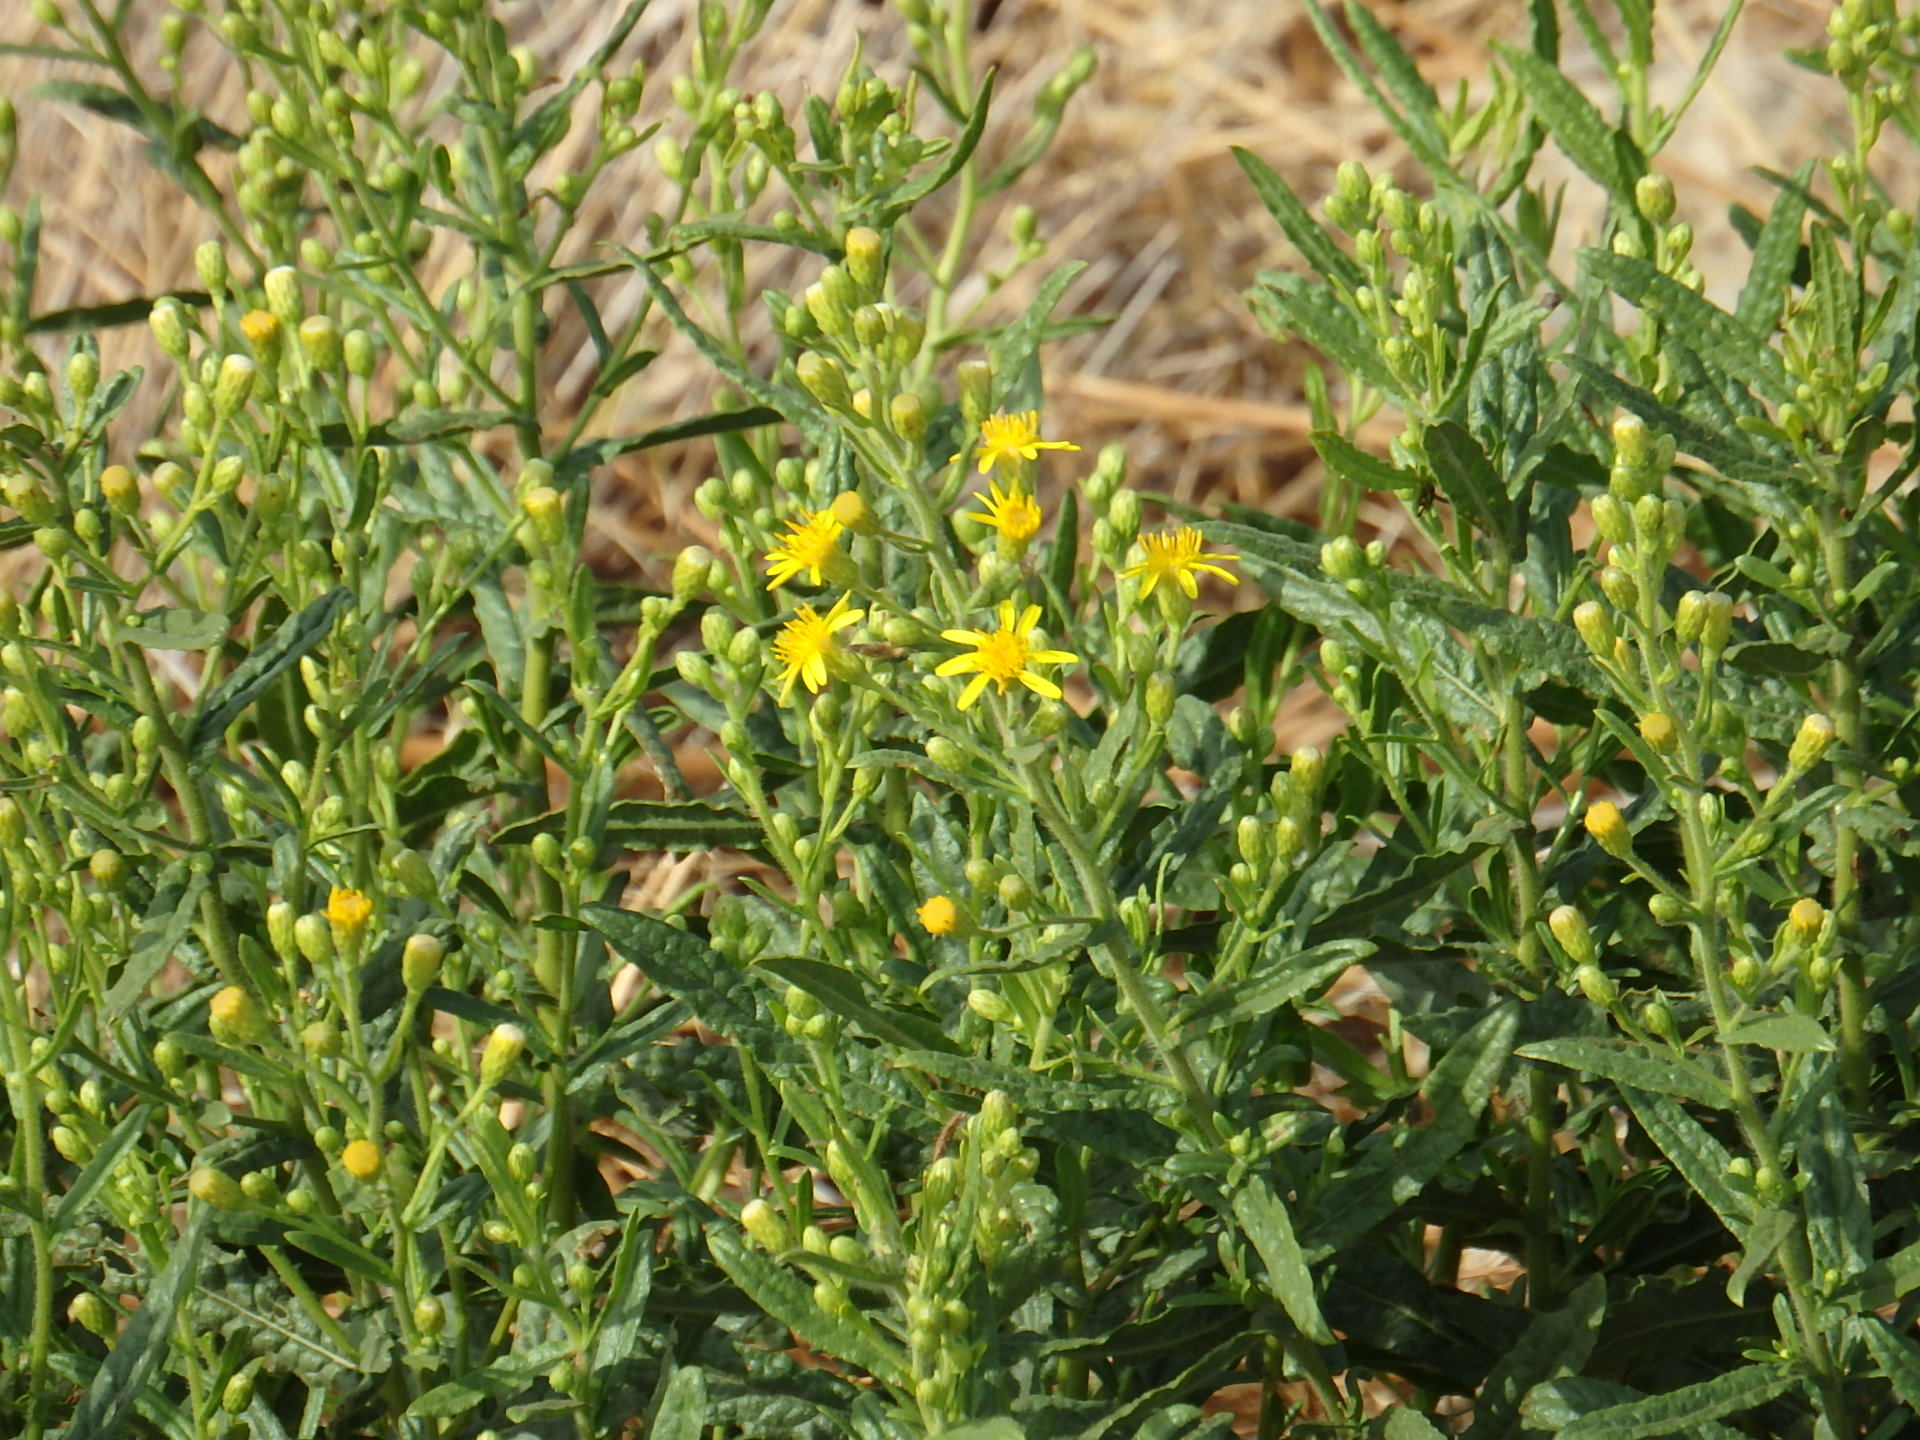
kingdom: Plantae
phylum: Tracheophyta
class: Magnoliopsida
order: Asterales
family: Asteraceae
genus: Dittrichia
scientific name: Dittrichia viscosa
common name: Woody fleabane
